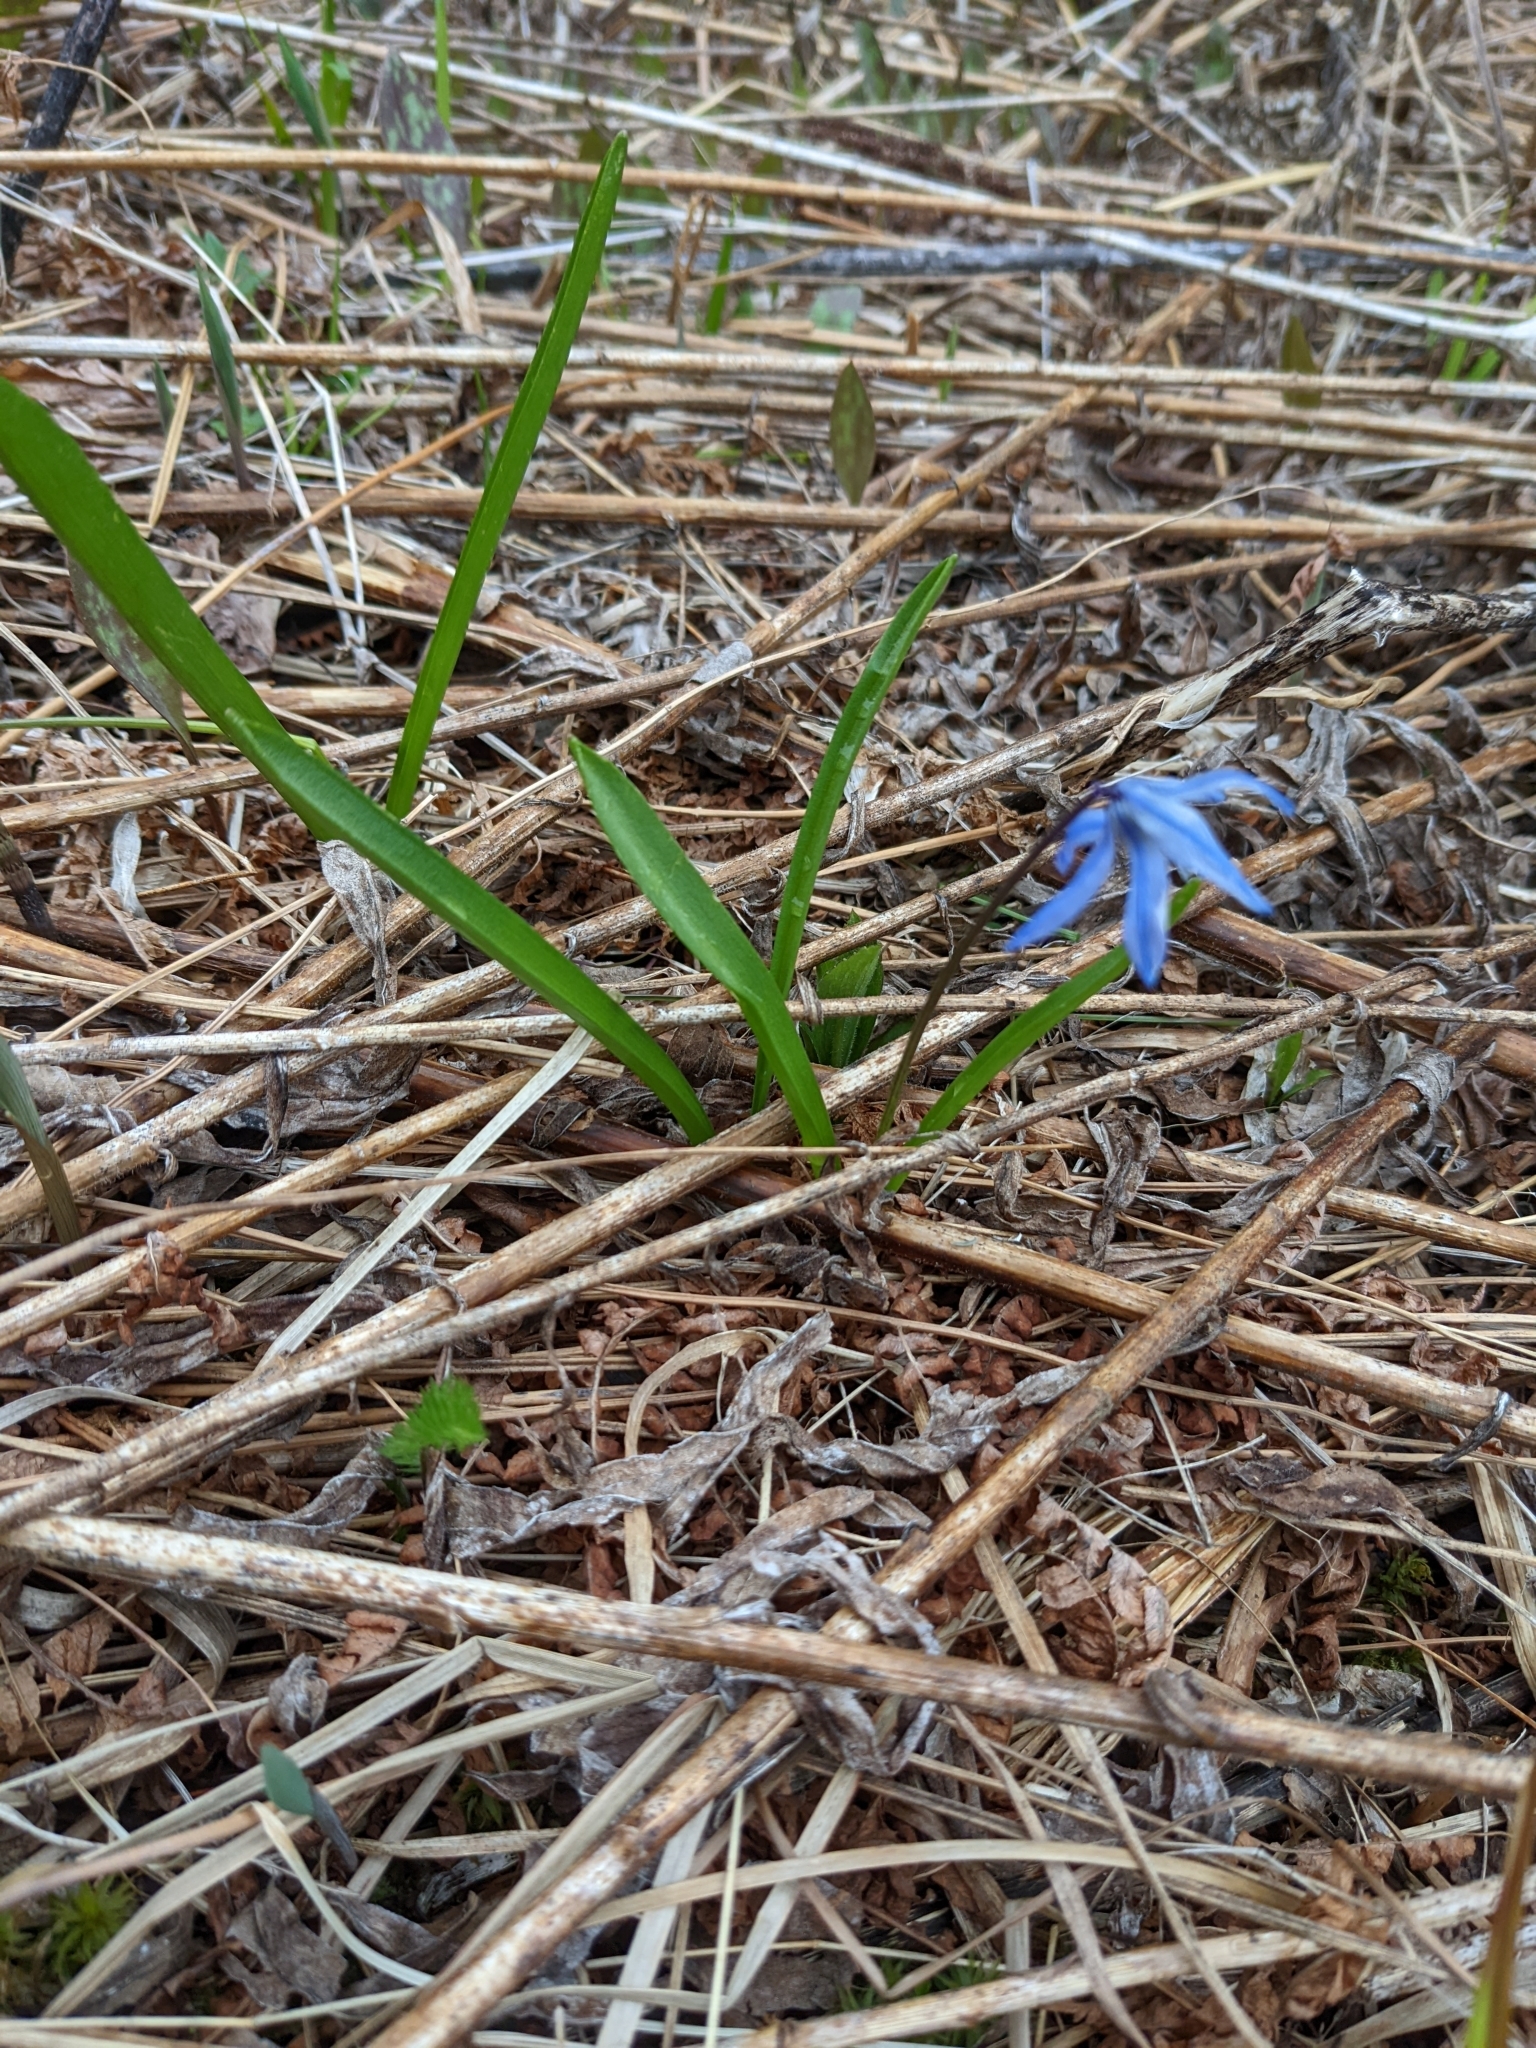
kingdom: Plantae
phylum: Tracheophyta
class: Liliopsida
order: Asparagales
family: Asparagaceae
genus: Scilla
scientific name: Scilla siberica
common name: Siberian squill
